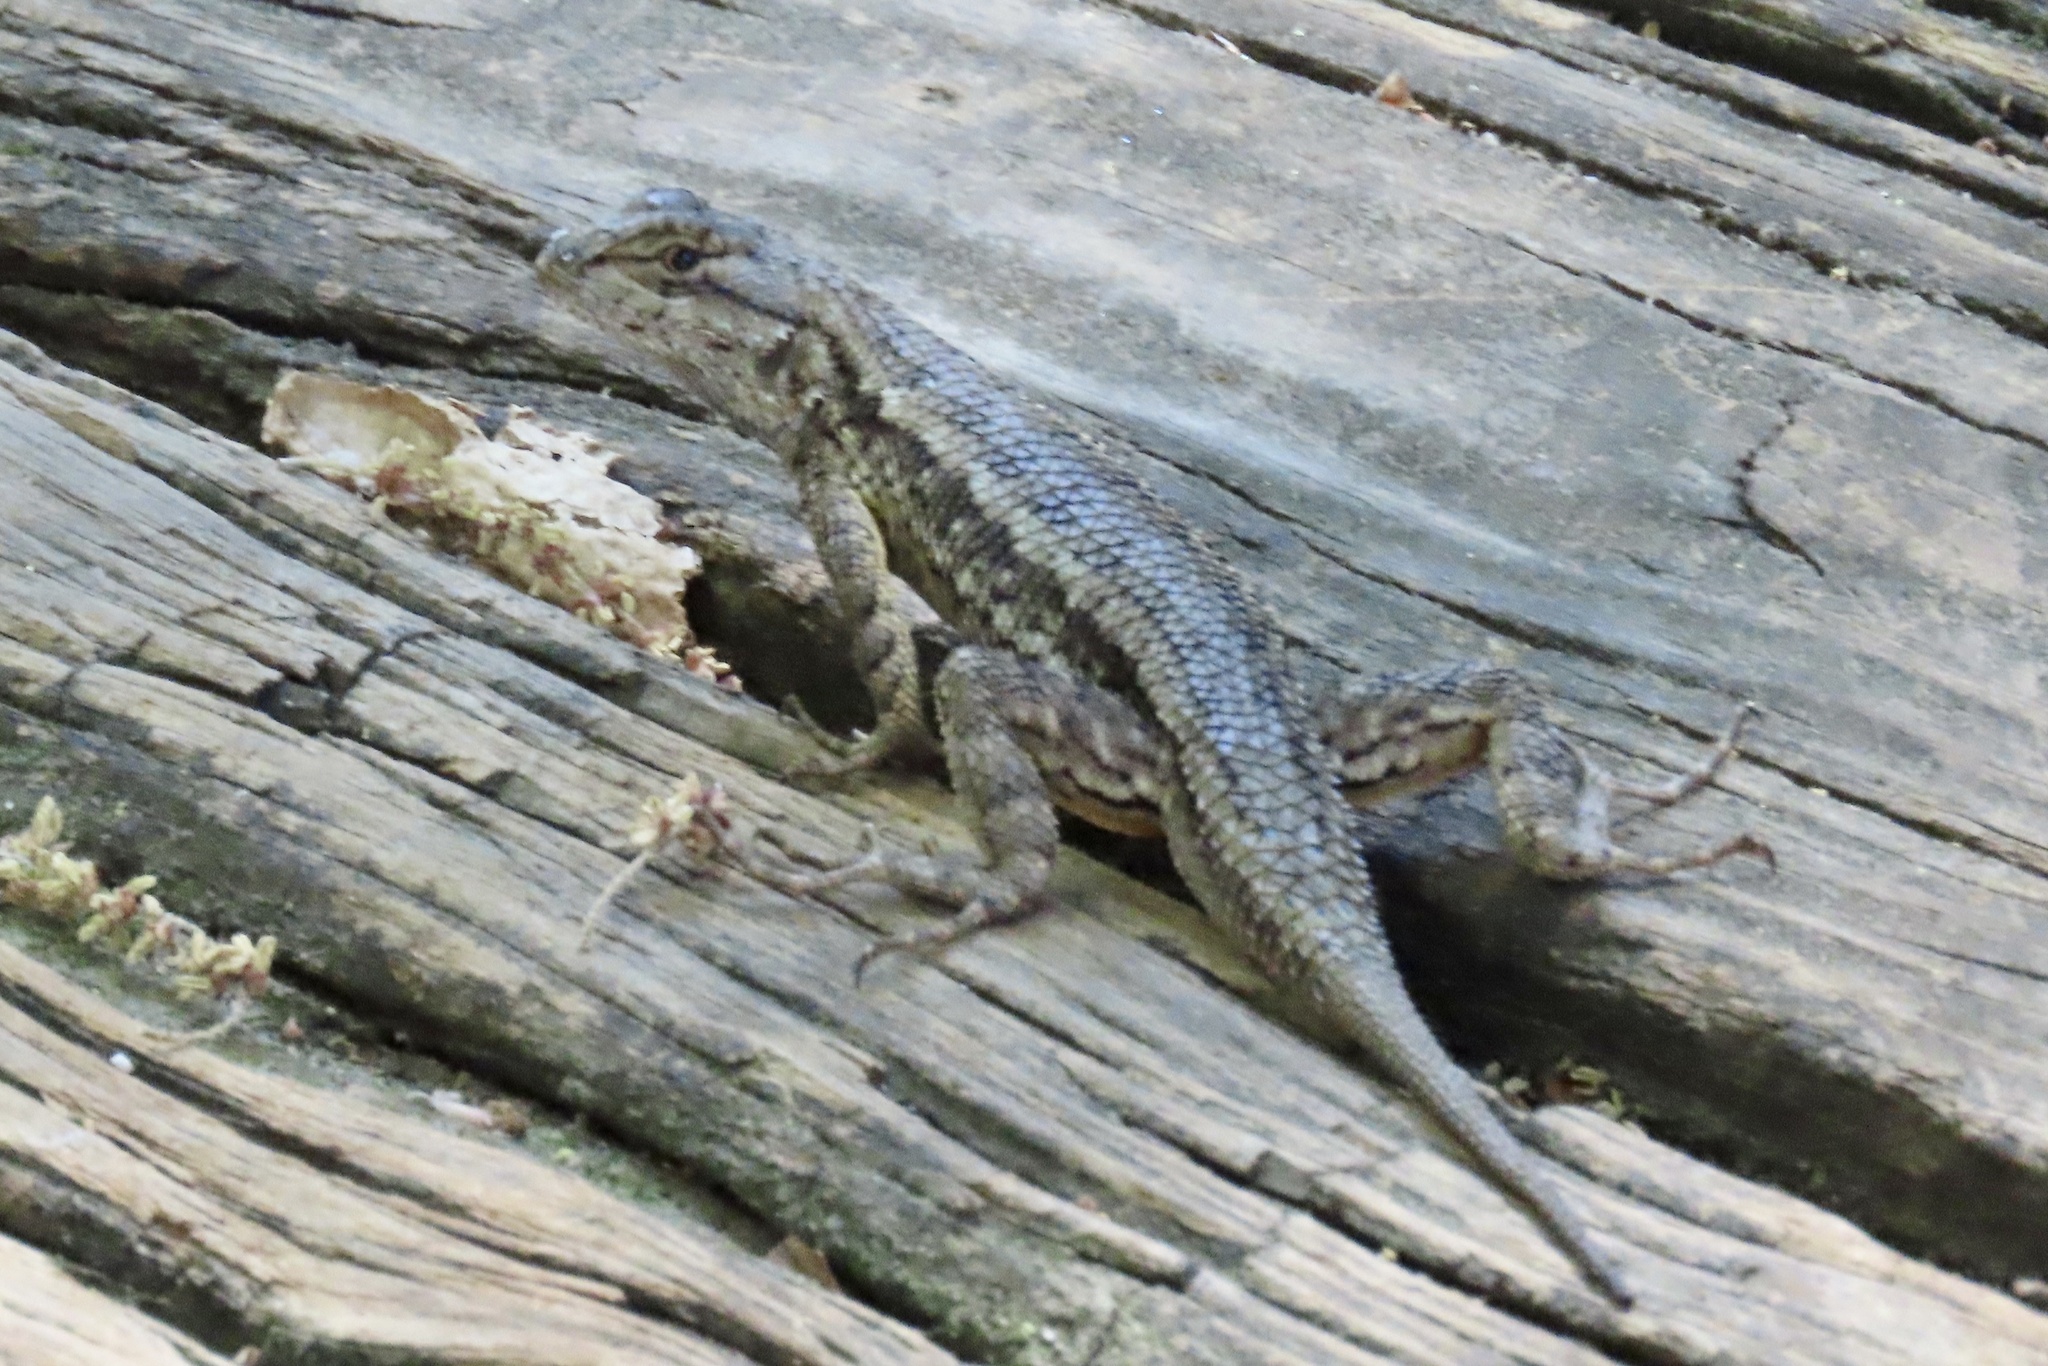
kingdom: Animalia
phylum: Chordata
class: Squamata
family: Phrynosomatidae
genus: Sceloporus
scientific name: Sceloporus occidentalis
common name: Western fence lizard
